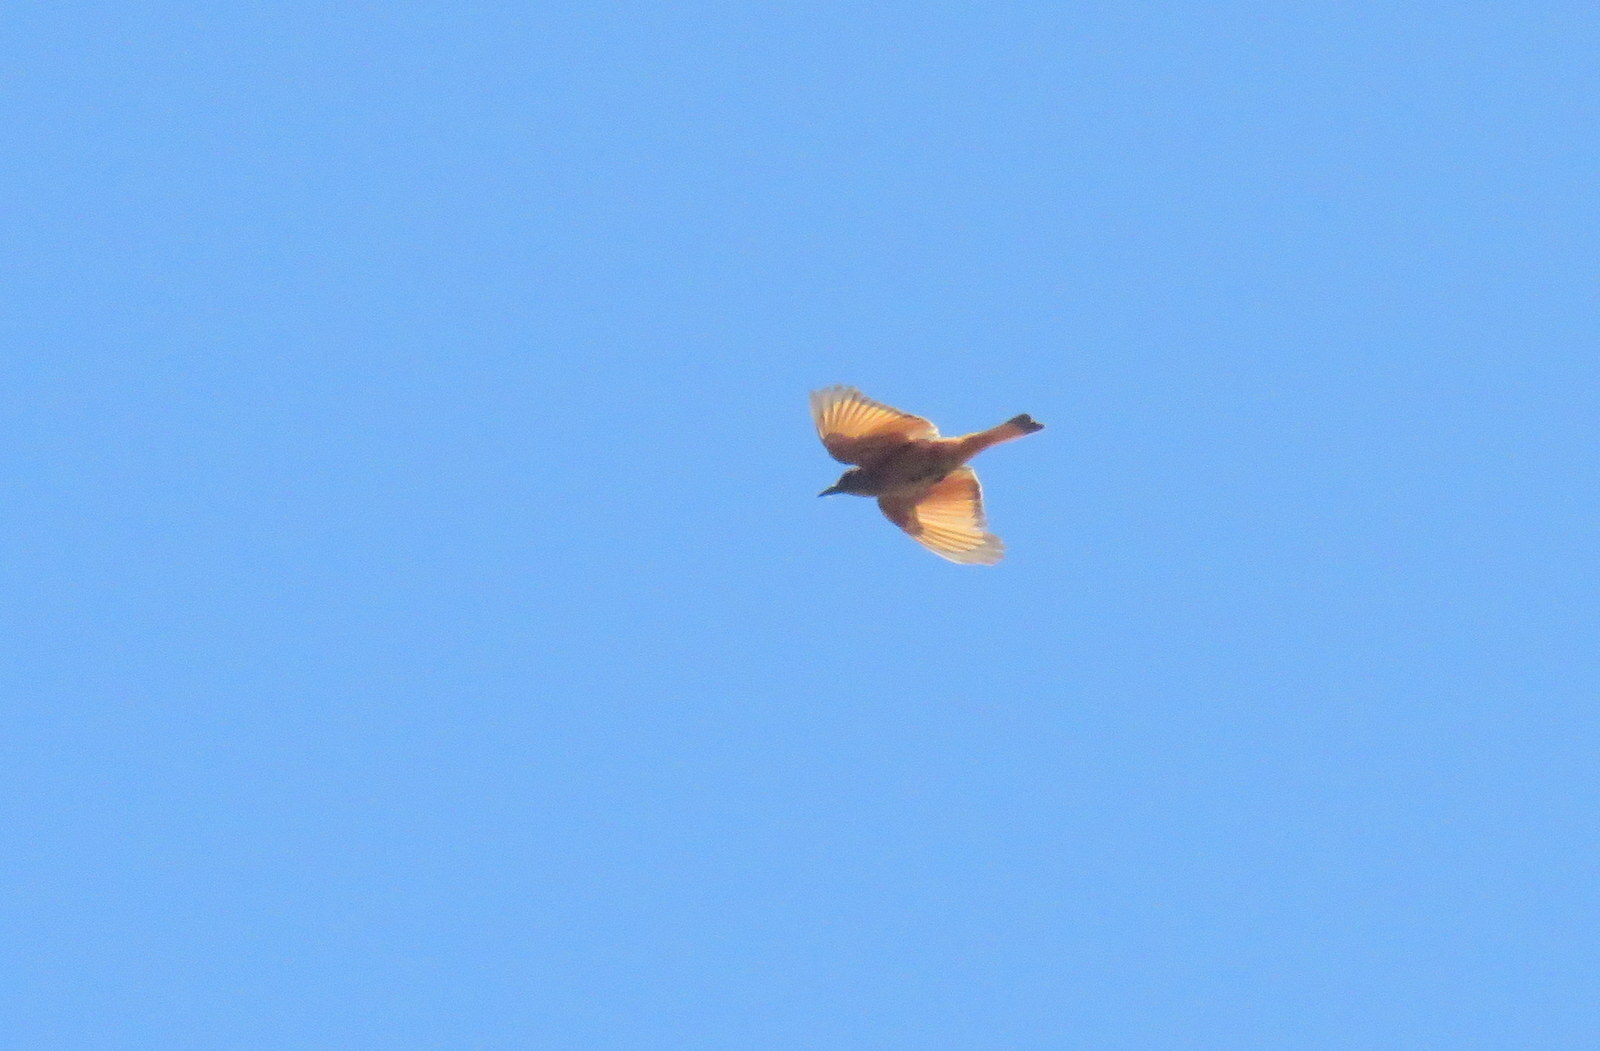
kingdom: Animalia
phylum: Chordata
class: Aves
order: Passeriformes
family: Tyrannidae
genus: Hirundinea
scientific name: Hirundinea ferruginea
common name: Cliff flycatcher
